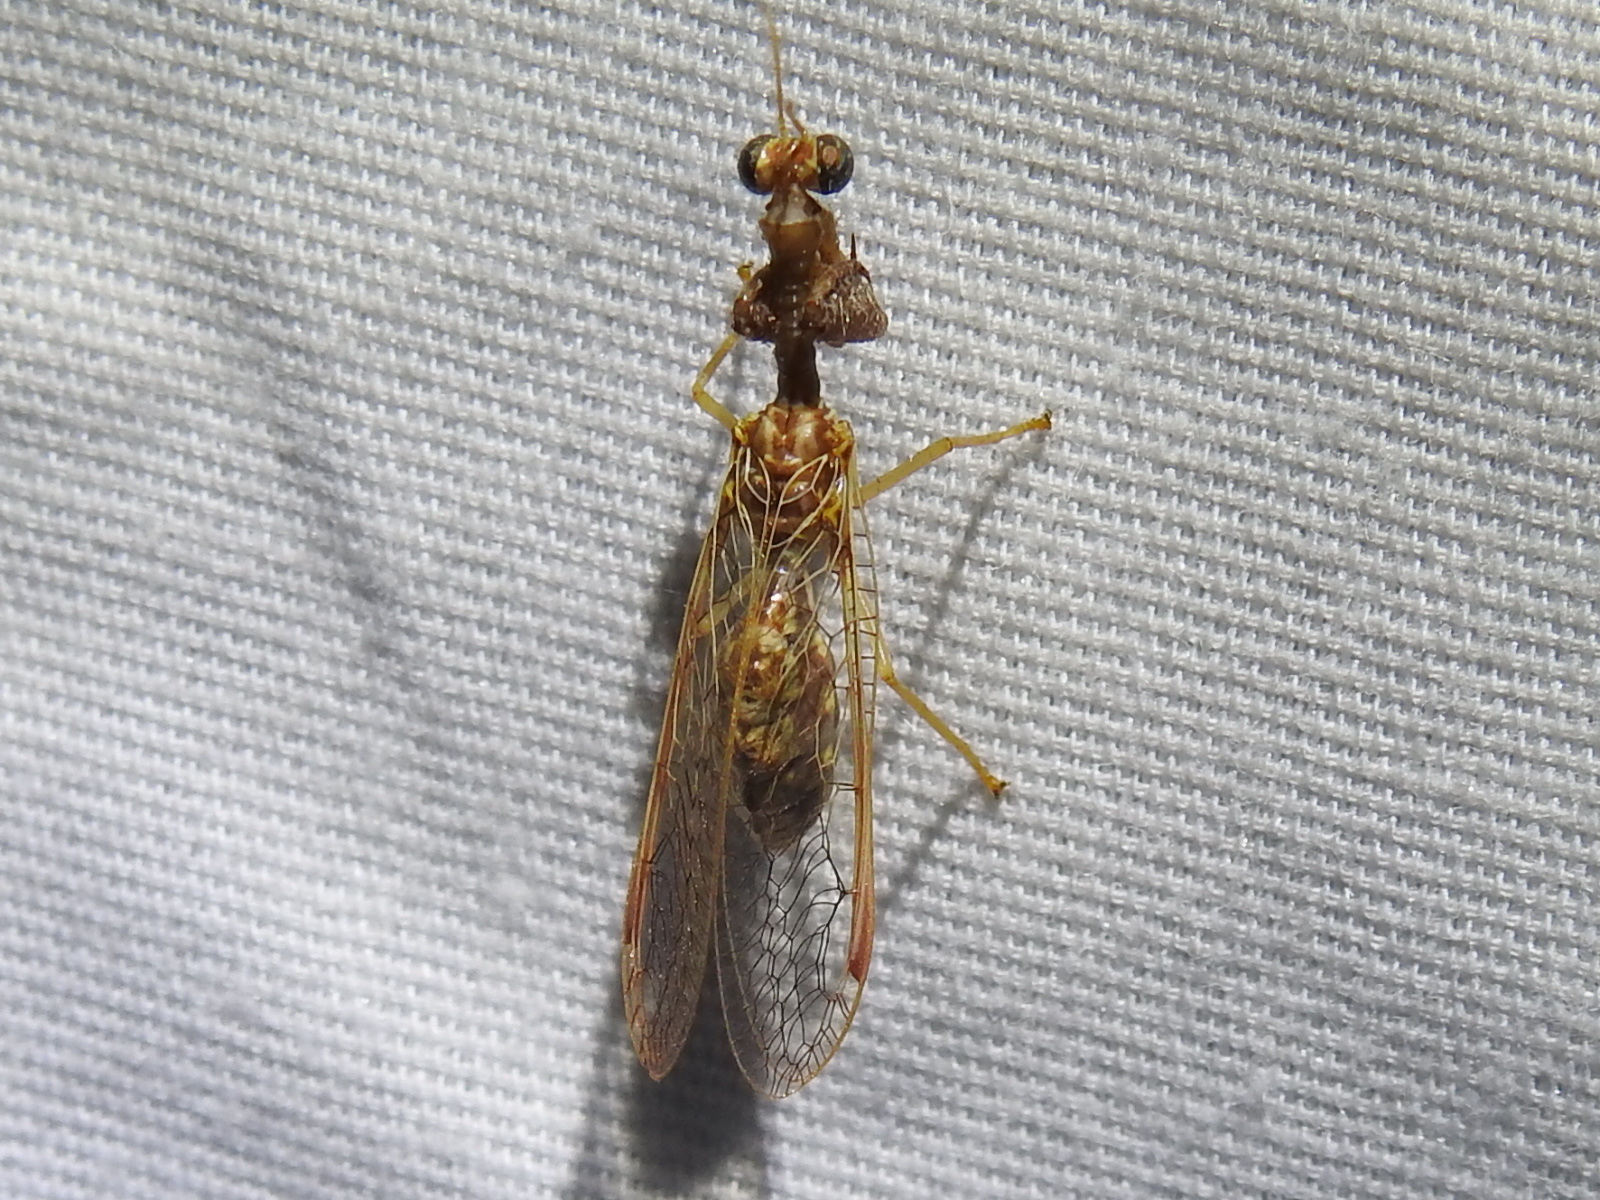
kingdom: Animalia
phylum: Arthropoda
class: Insecta
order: Neuroptera
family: Mantispidae
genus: Dicromantispa
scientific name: Dicromantispa sayi
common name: Say's mantidfly
